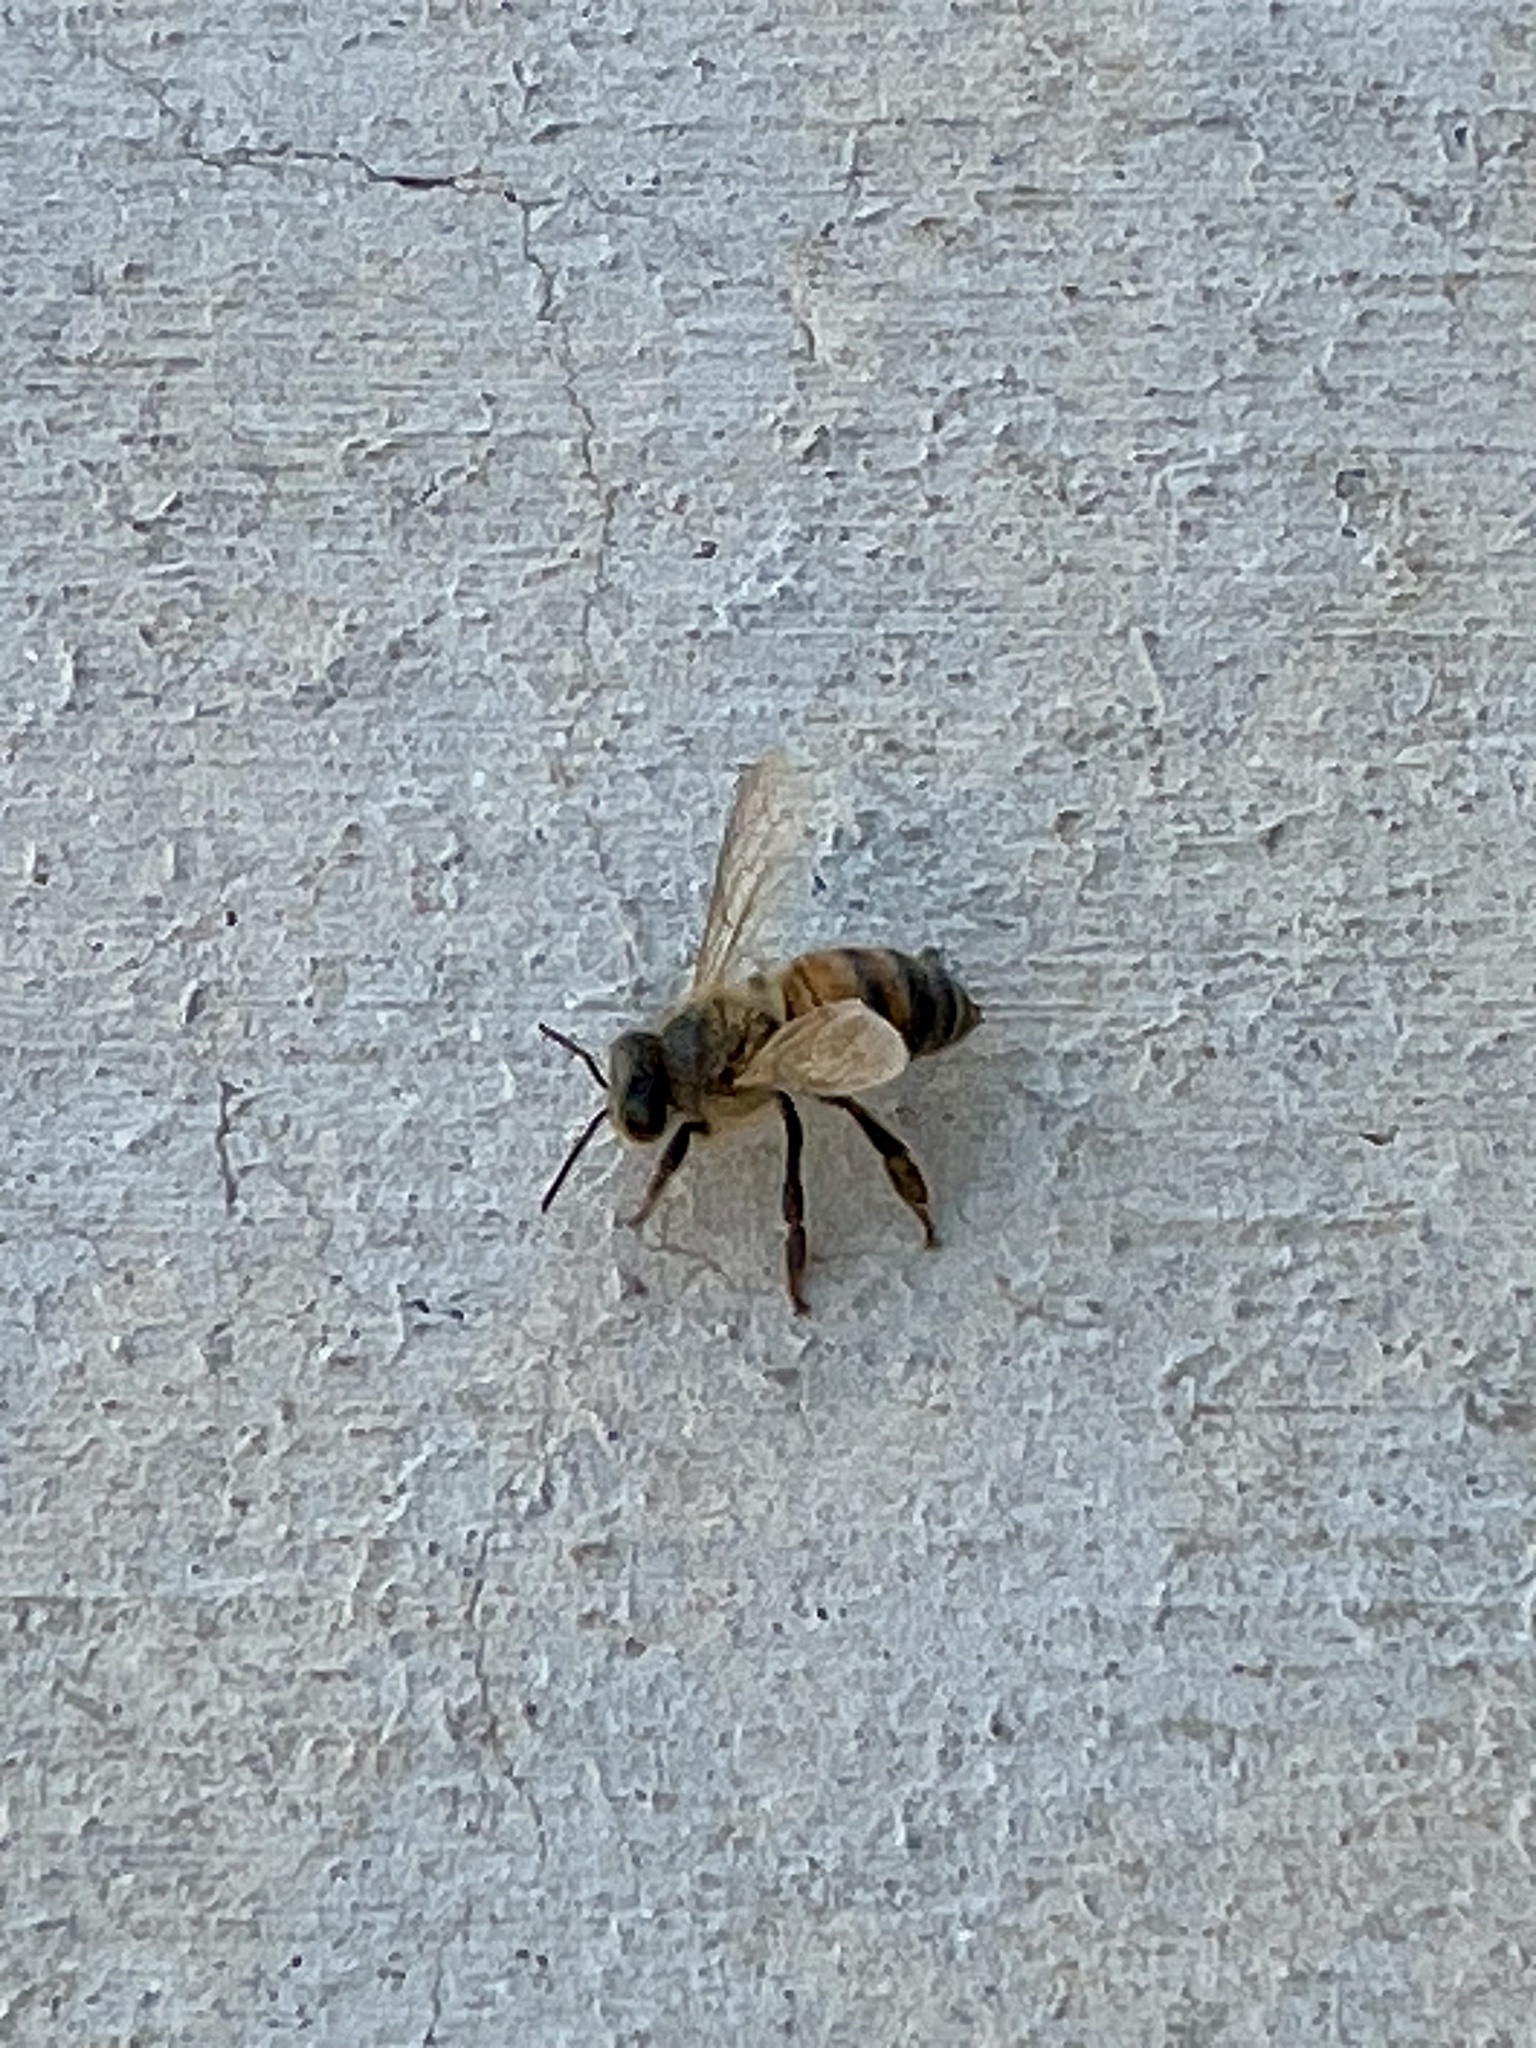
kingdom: Animalia
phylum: Arthropoda
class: Insecta
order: Hymenoptera
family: Apidae
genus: Apis
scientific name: Apis mellifera
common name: Honey bee
